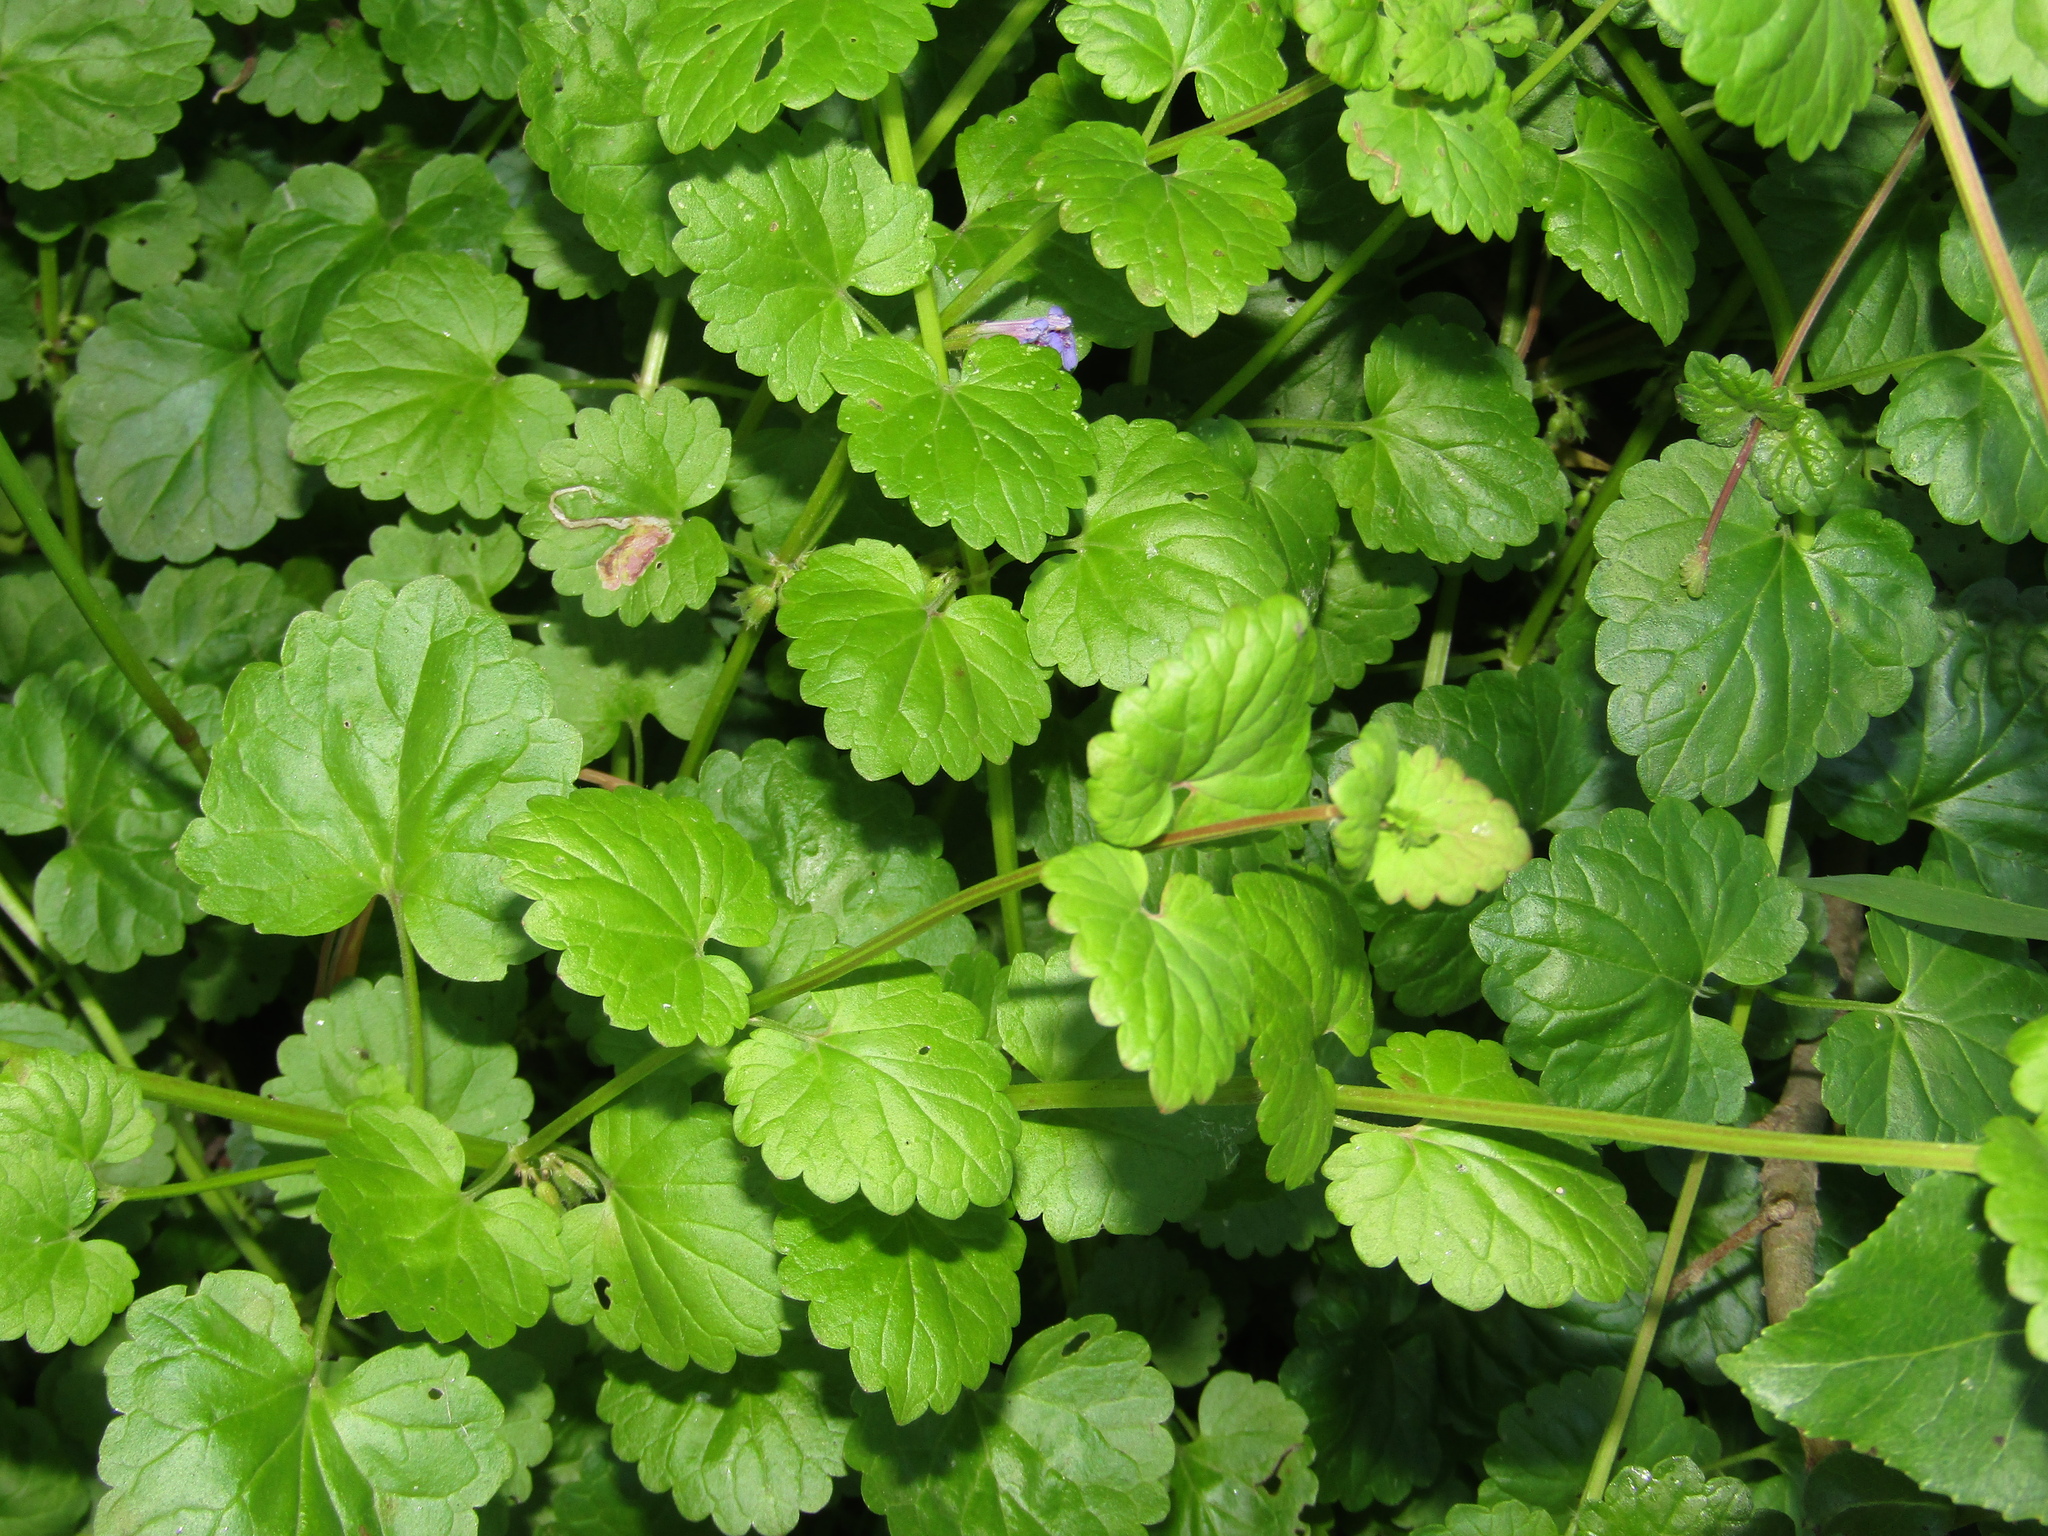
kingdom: Plantae
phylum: Tracheophyta
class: Magnoliopsida
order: Lamiales
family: Lamiaceae
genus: Glechoma
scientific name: Glechoma hederacea
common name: Ground ivy
